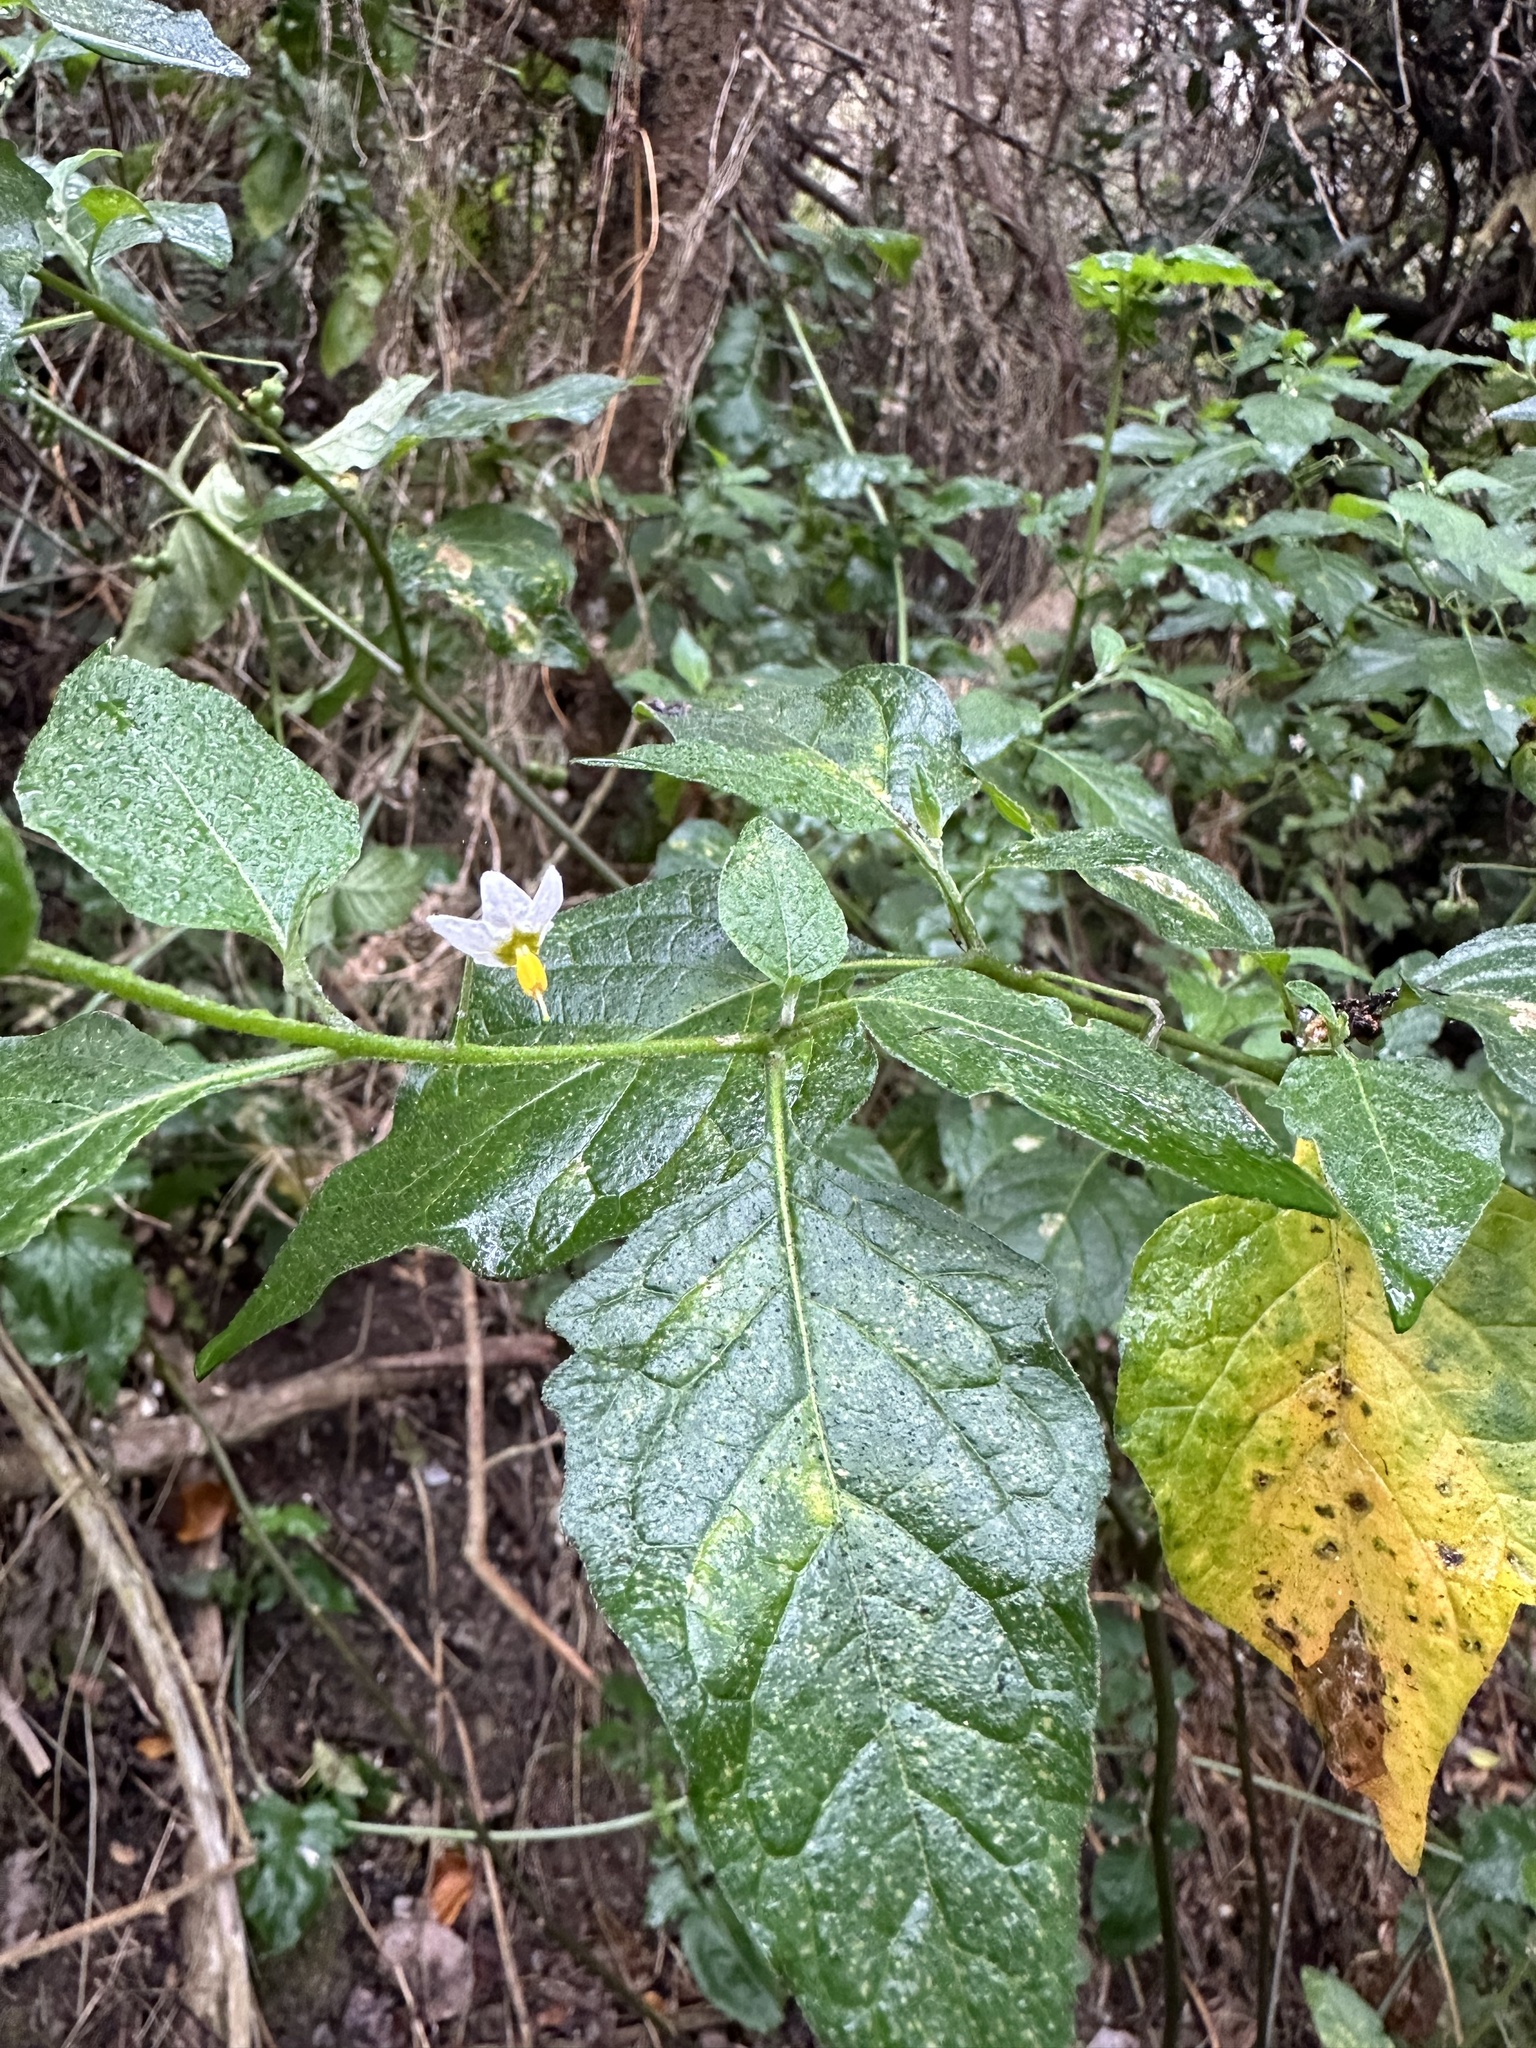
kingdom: Plantae
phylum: Tracheophyta
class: Magnoliopsida
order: Solanales
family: Solanaceae
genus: Solanum
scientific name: Solanum furcatum
